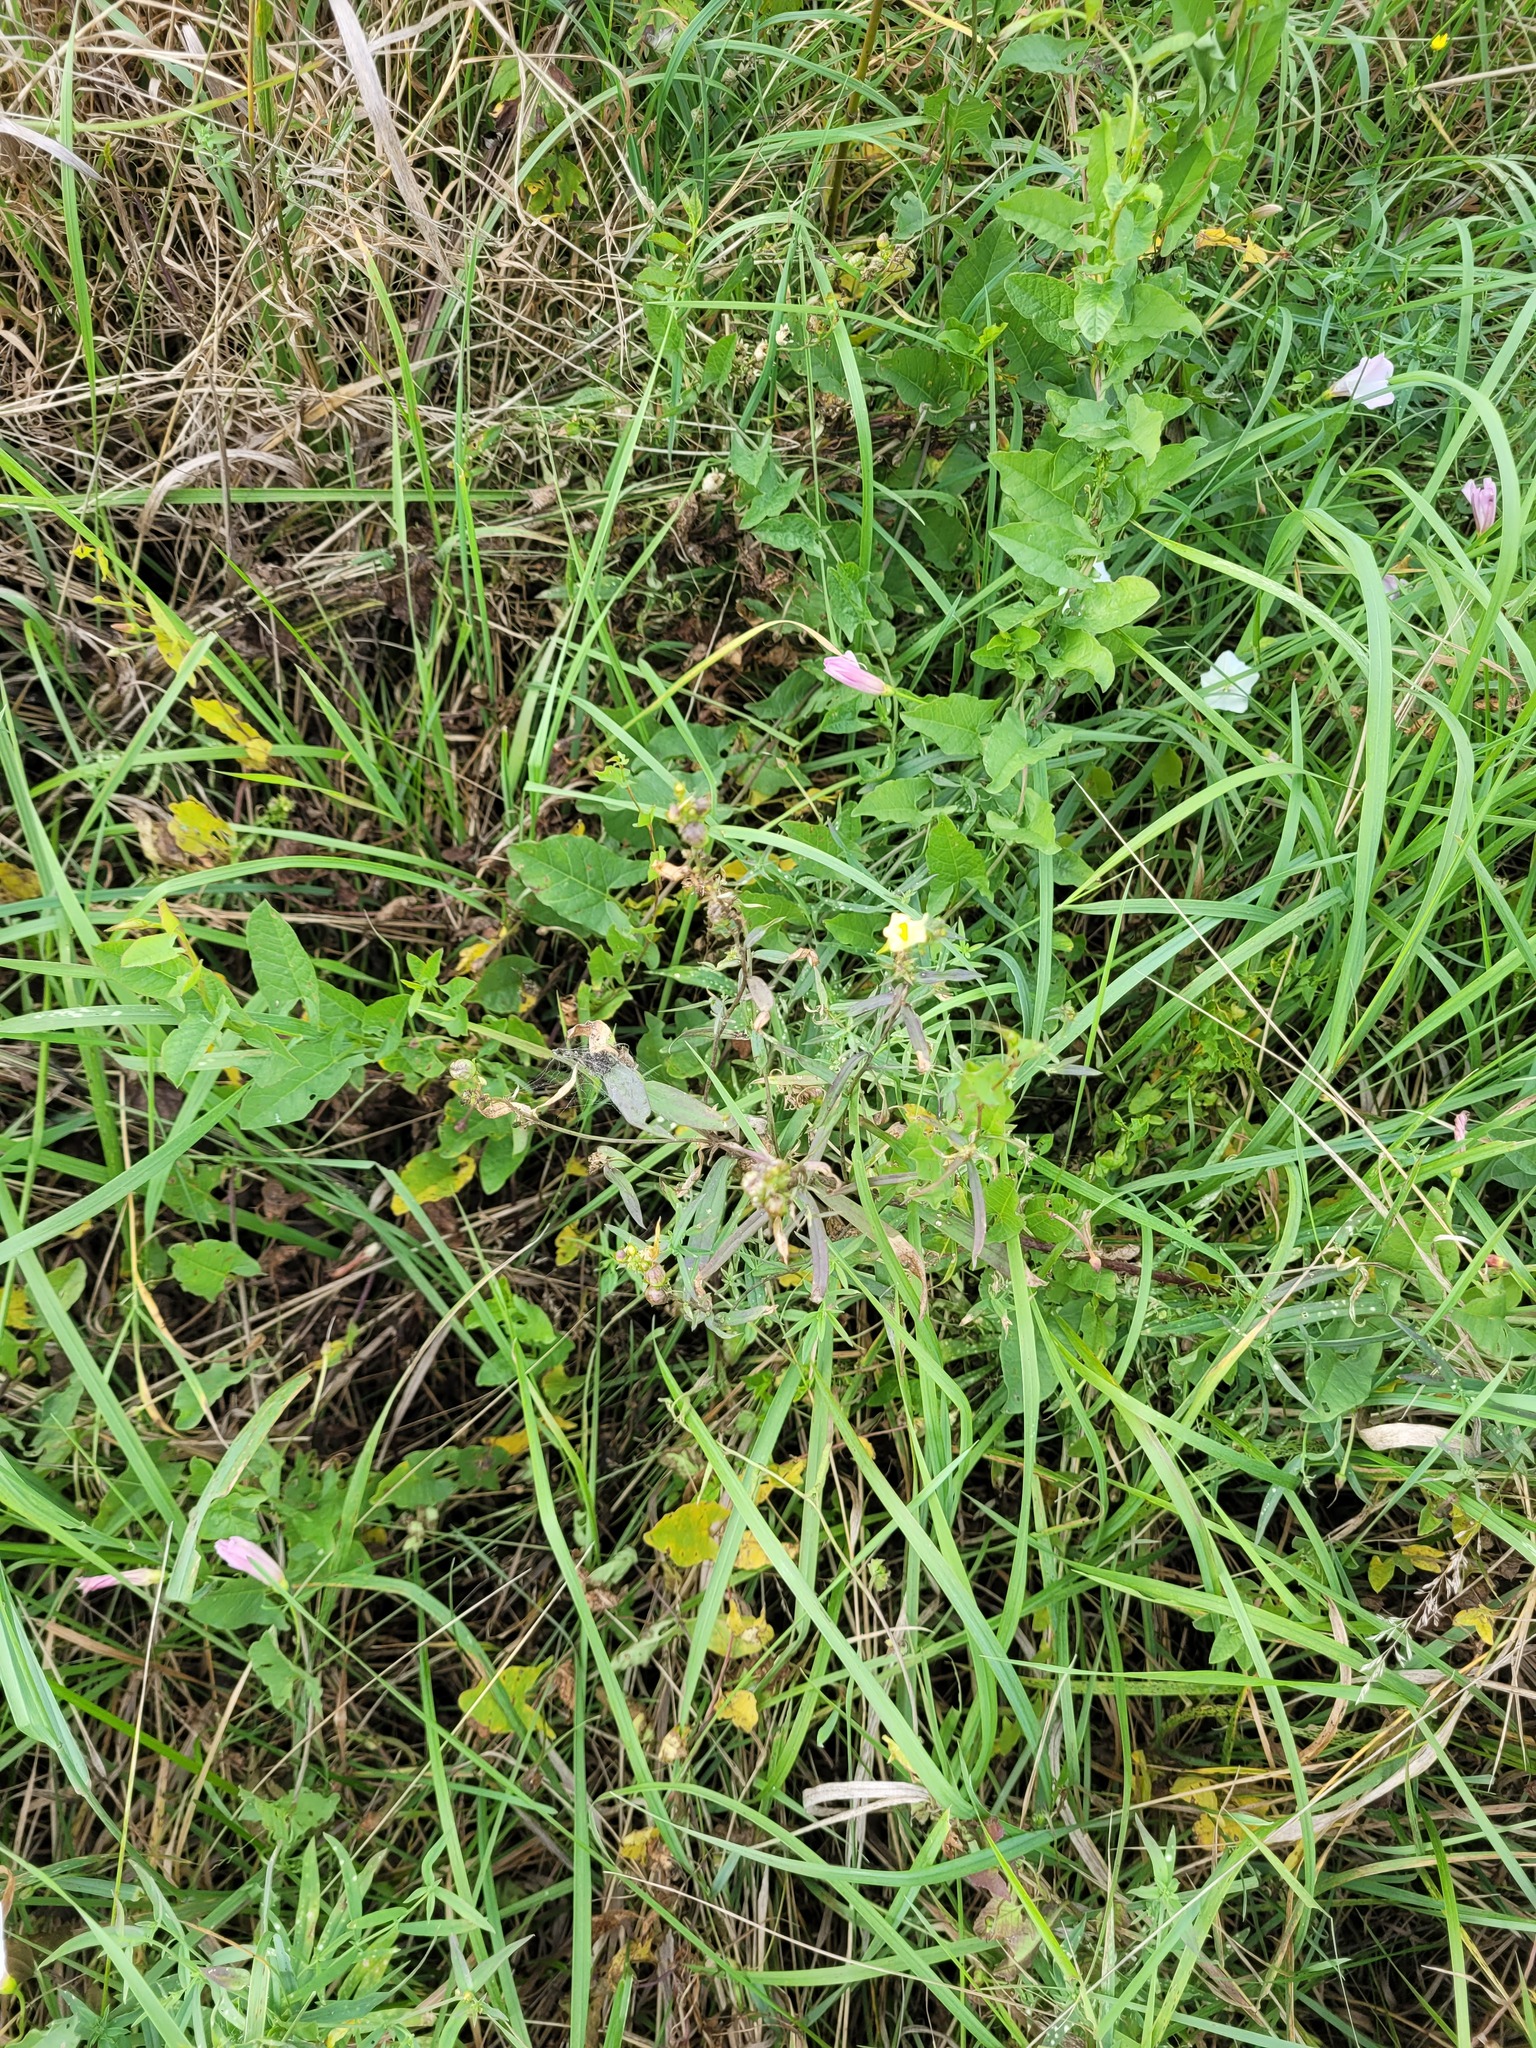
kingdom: Plantae
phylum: Tracheophyta
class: Magnoliopsida
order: Lamiales
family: Plantaginaceae
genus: Linaria
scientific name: Linaria vulgaris
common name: Butter and eggs
